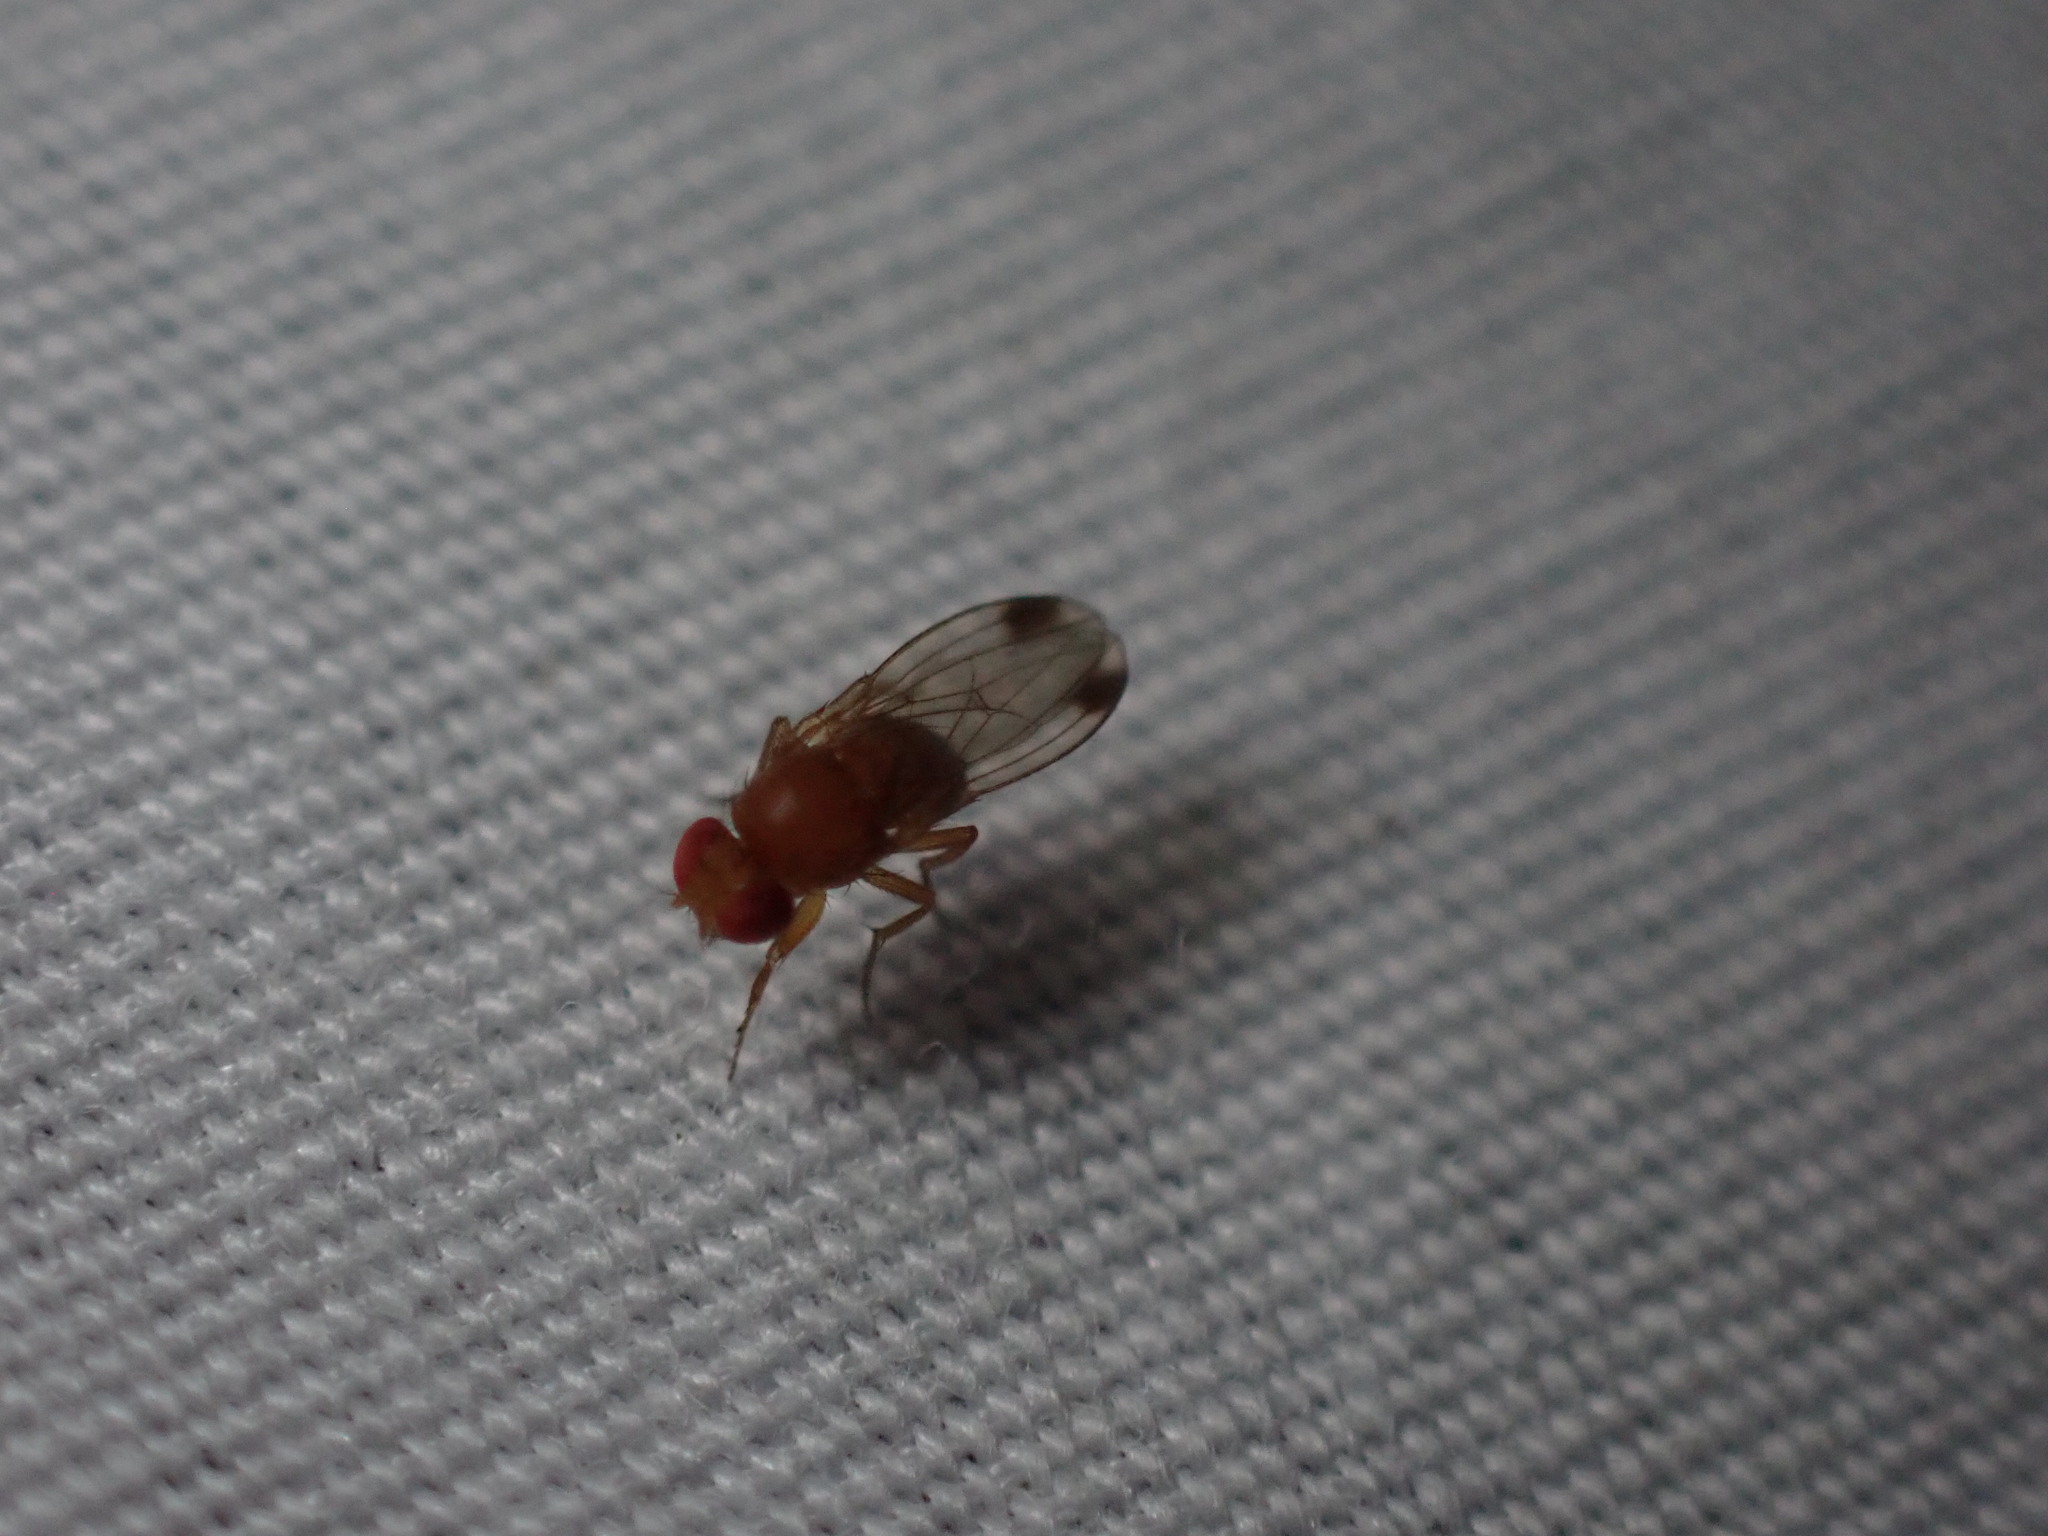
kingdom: Animalia
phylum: Arthropoda
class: Insecta
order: Diptera
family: Drosophilidae
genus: Drosophila
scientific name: Drosophila suzukii
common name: Spotted-wing drosophila
